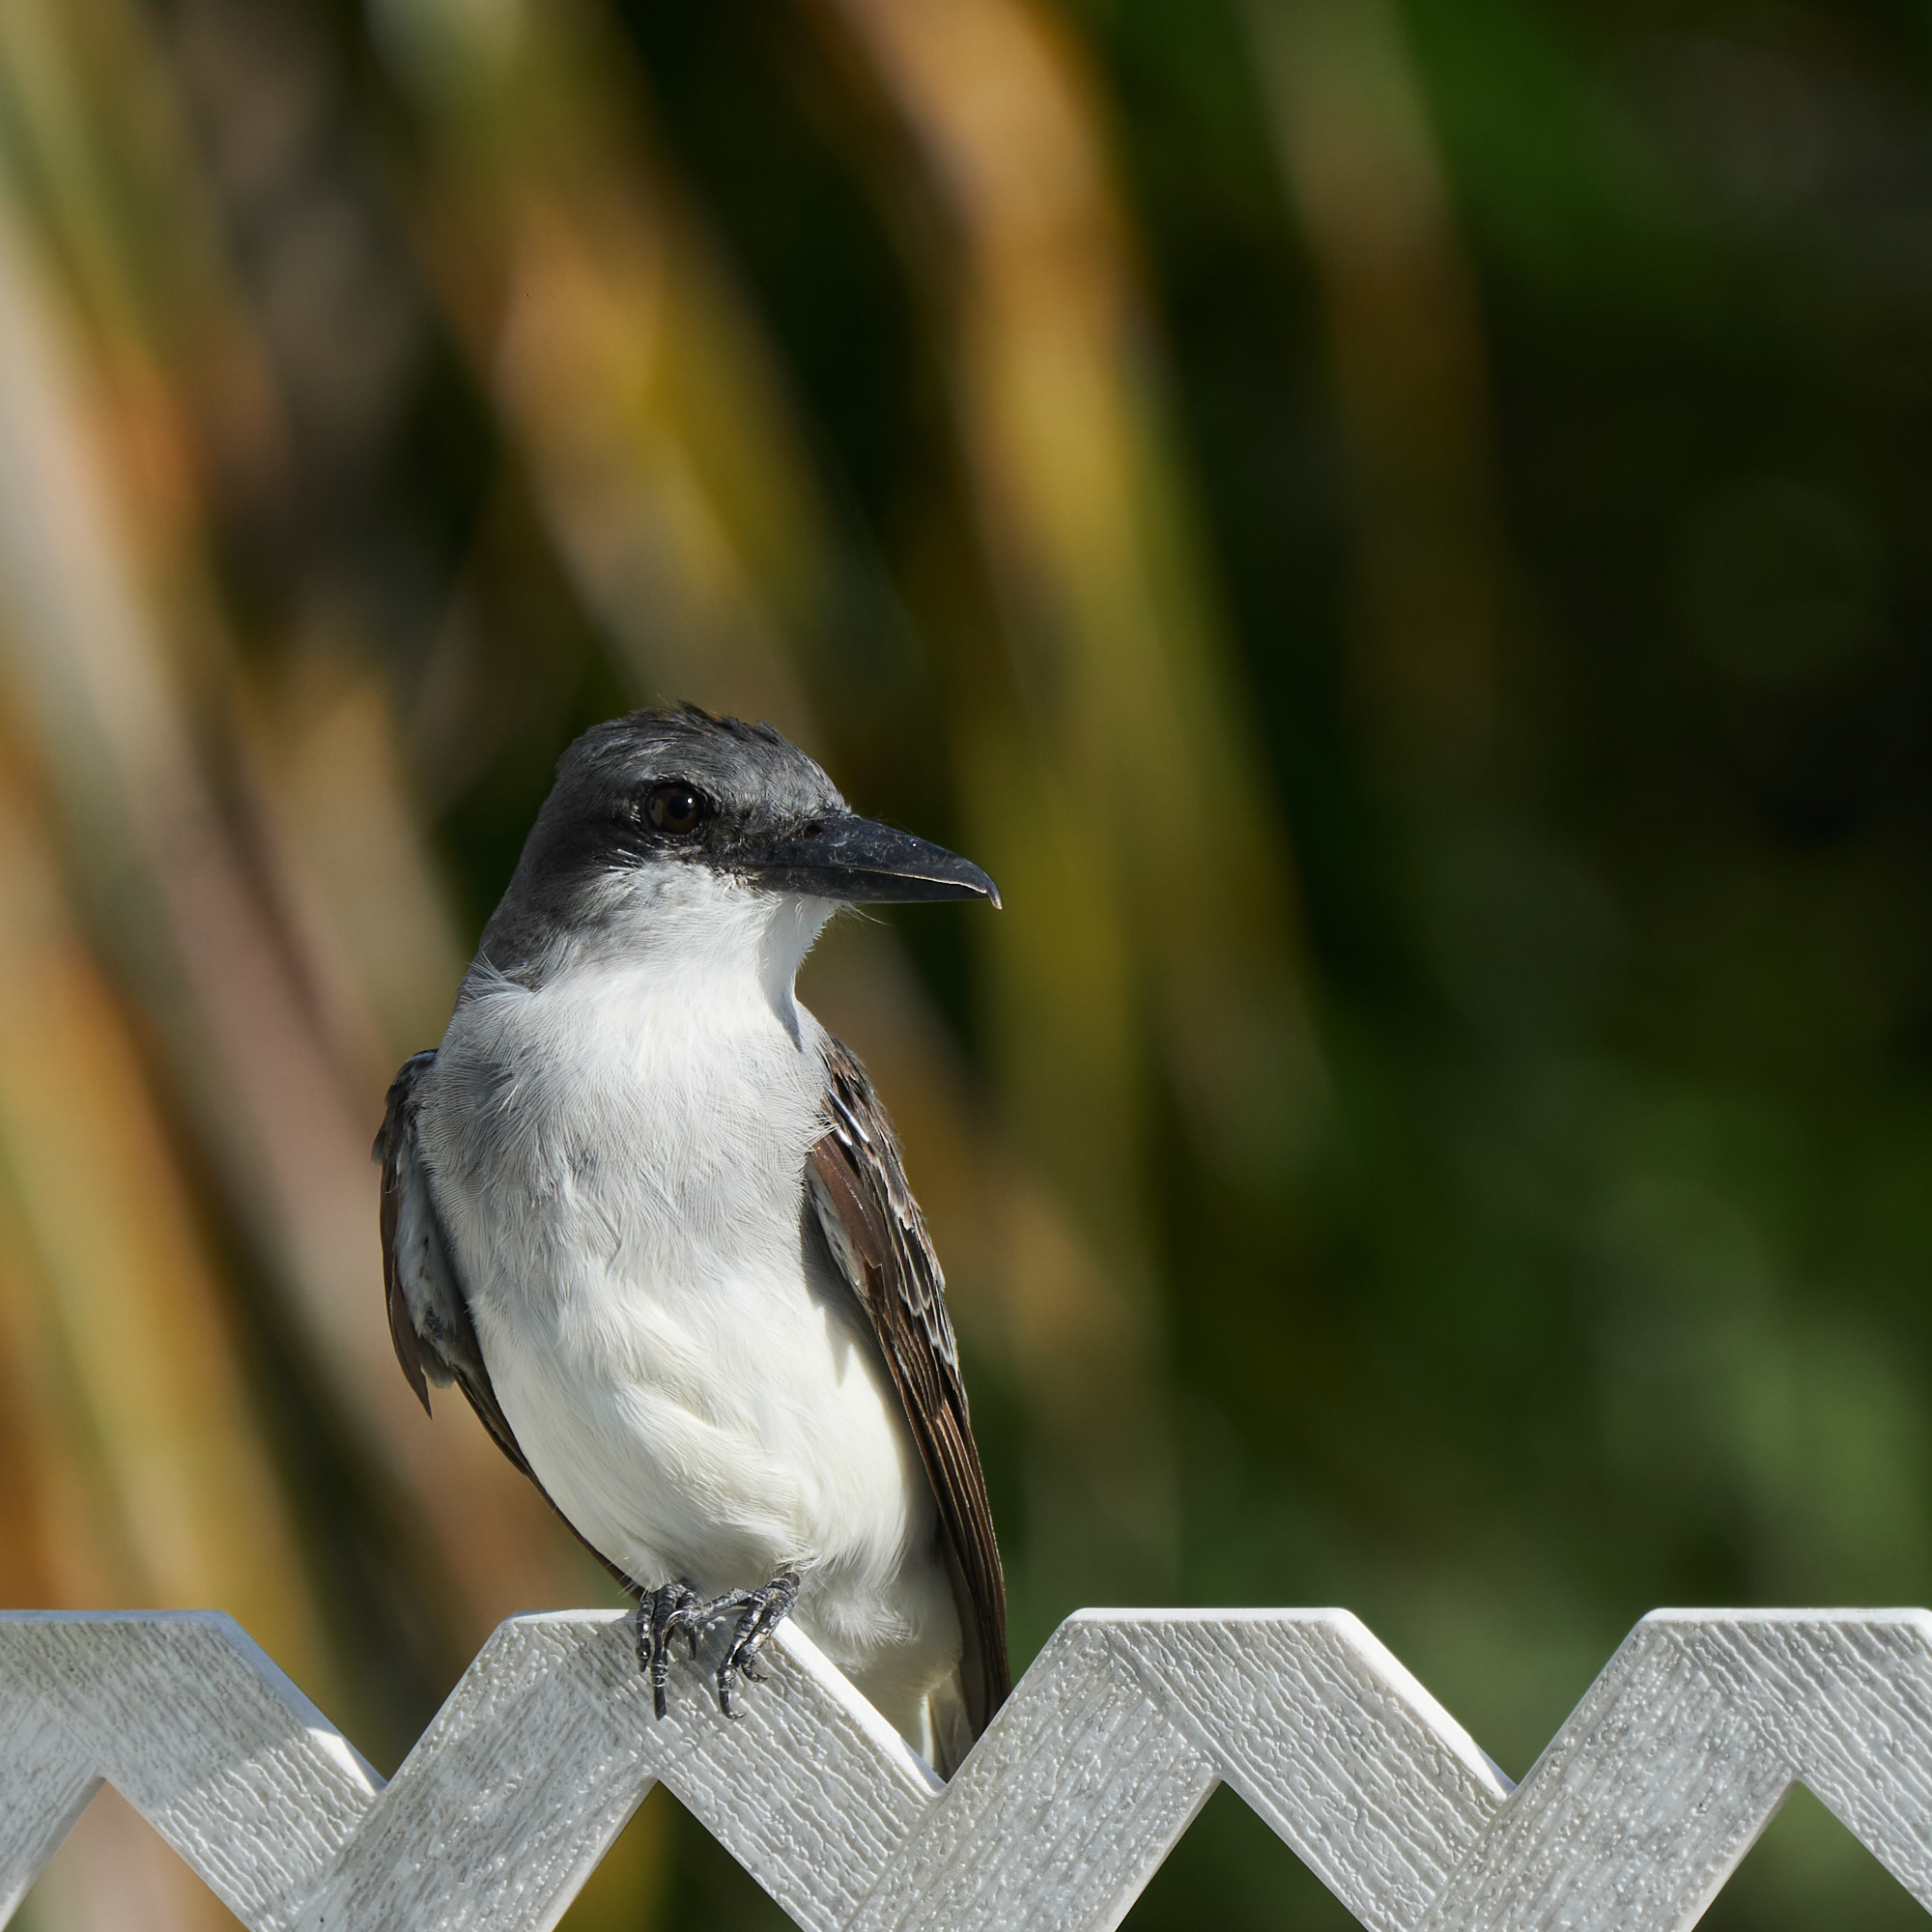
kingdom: Animalia
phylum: Chordata
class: Aves
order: Passeriformes
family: Tyrannidae
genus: Tyrannus
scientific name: Tyrannus dominicensis
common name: Gray kingbird
